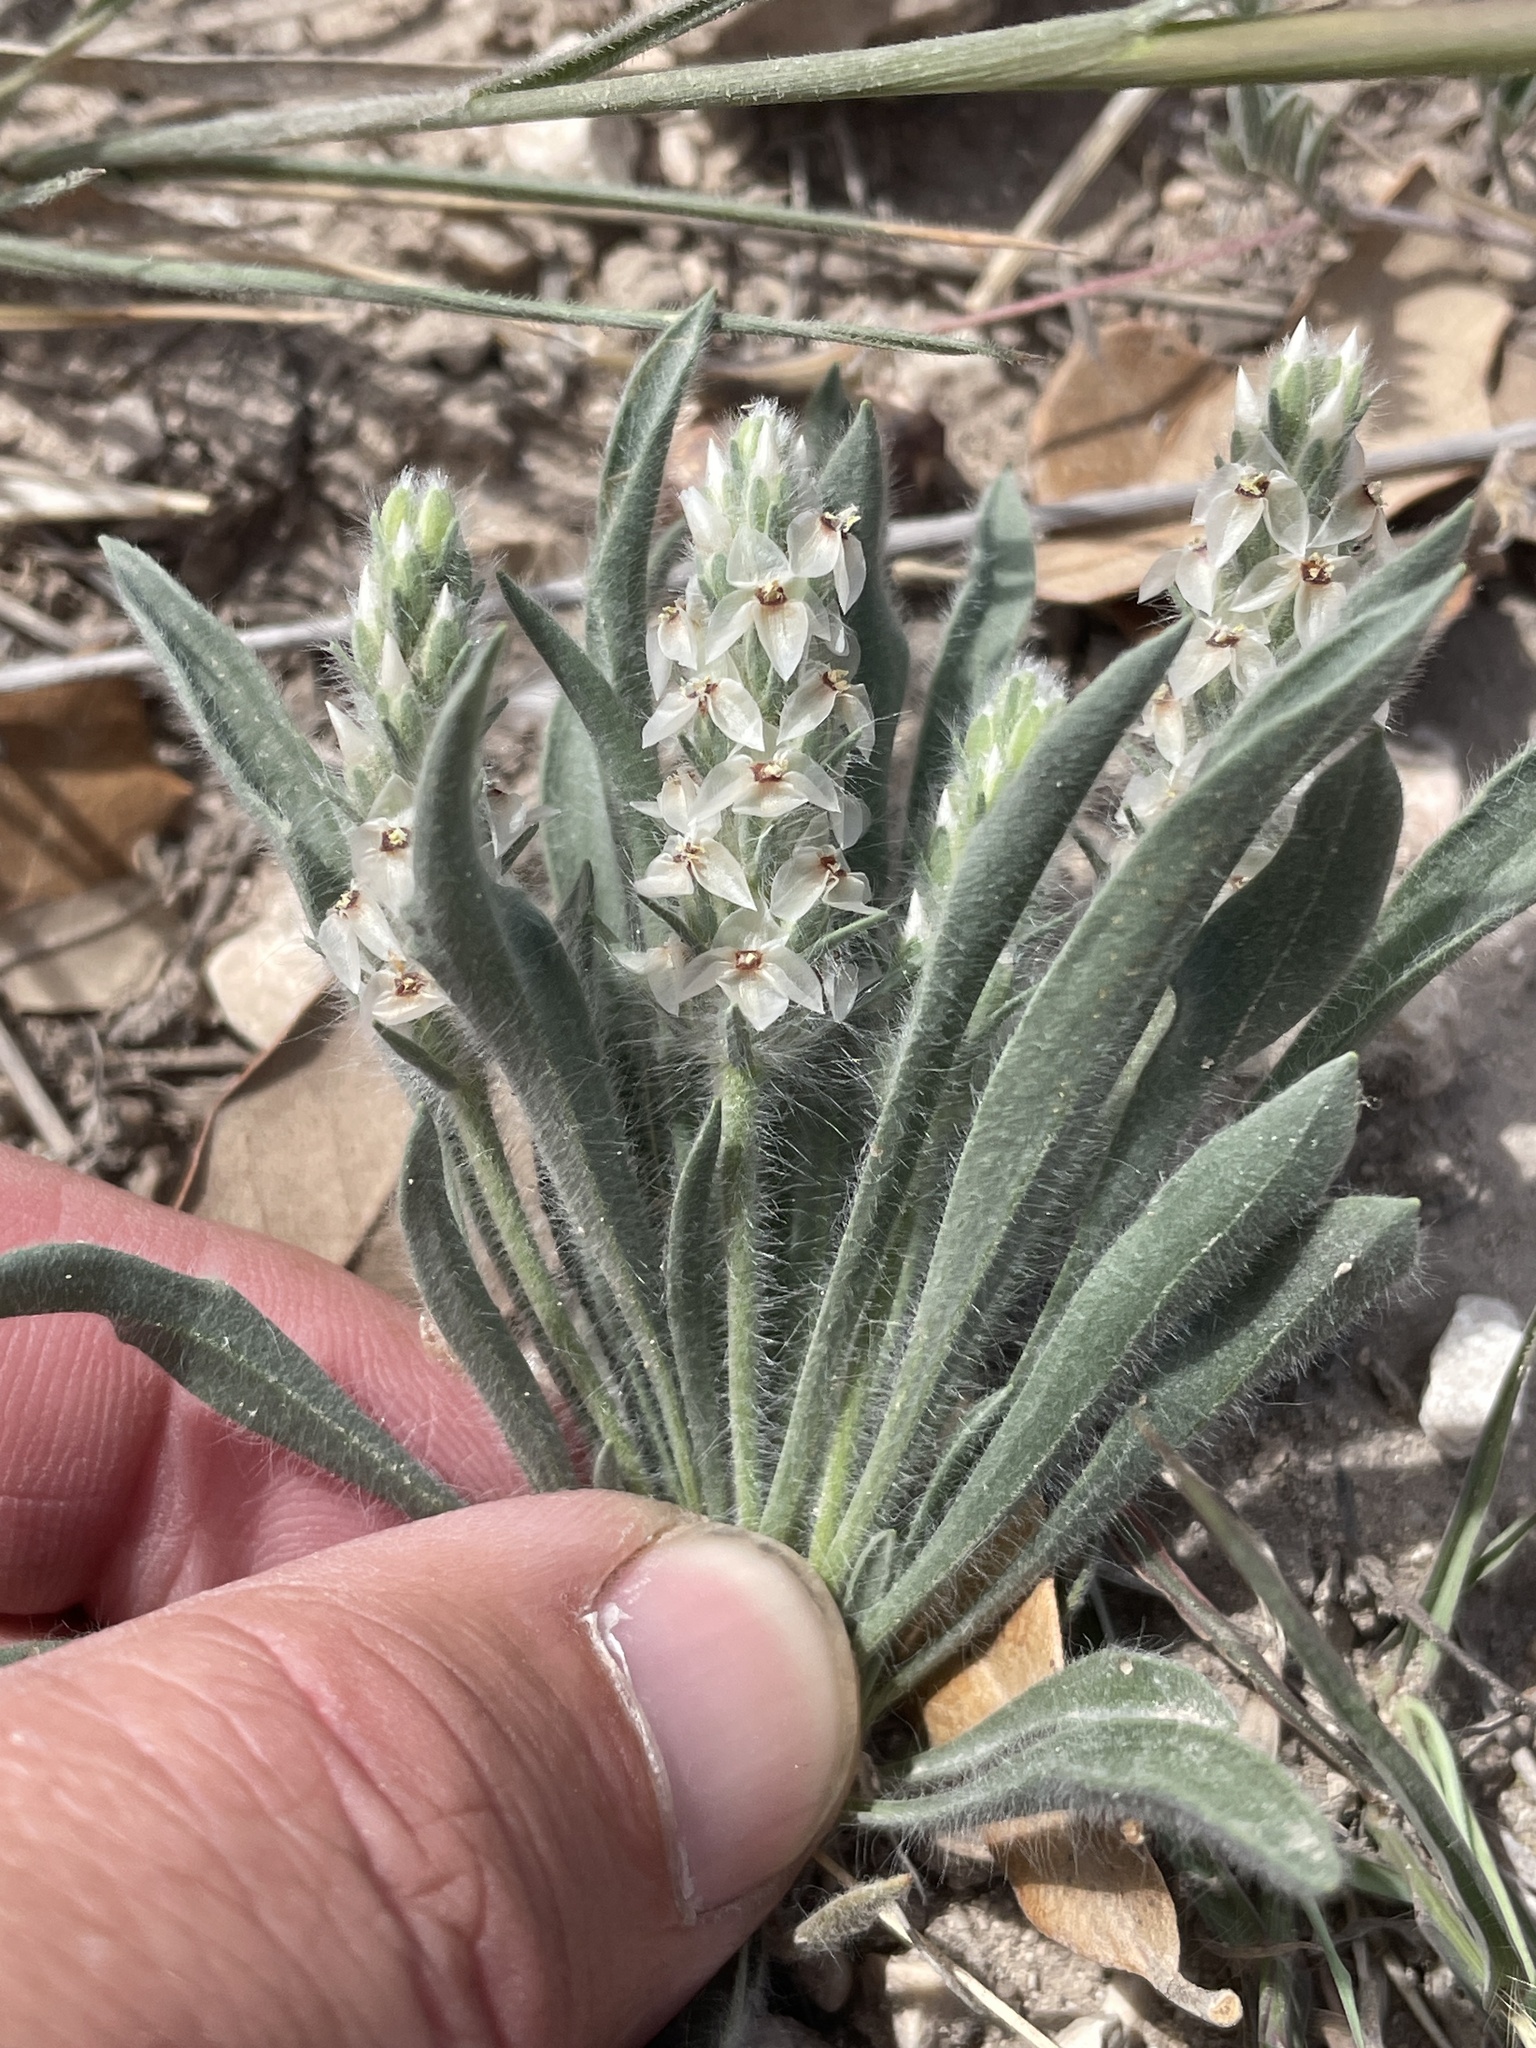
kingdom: Plantae
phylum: Tracheophyta
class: Magnoliopsida
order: Lamiales
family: Plantaginaceae
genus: Plantago
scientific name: Plantago helleri
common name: Heller's plantain
